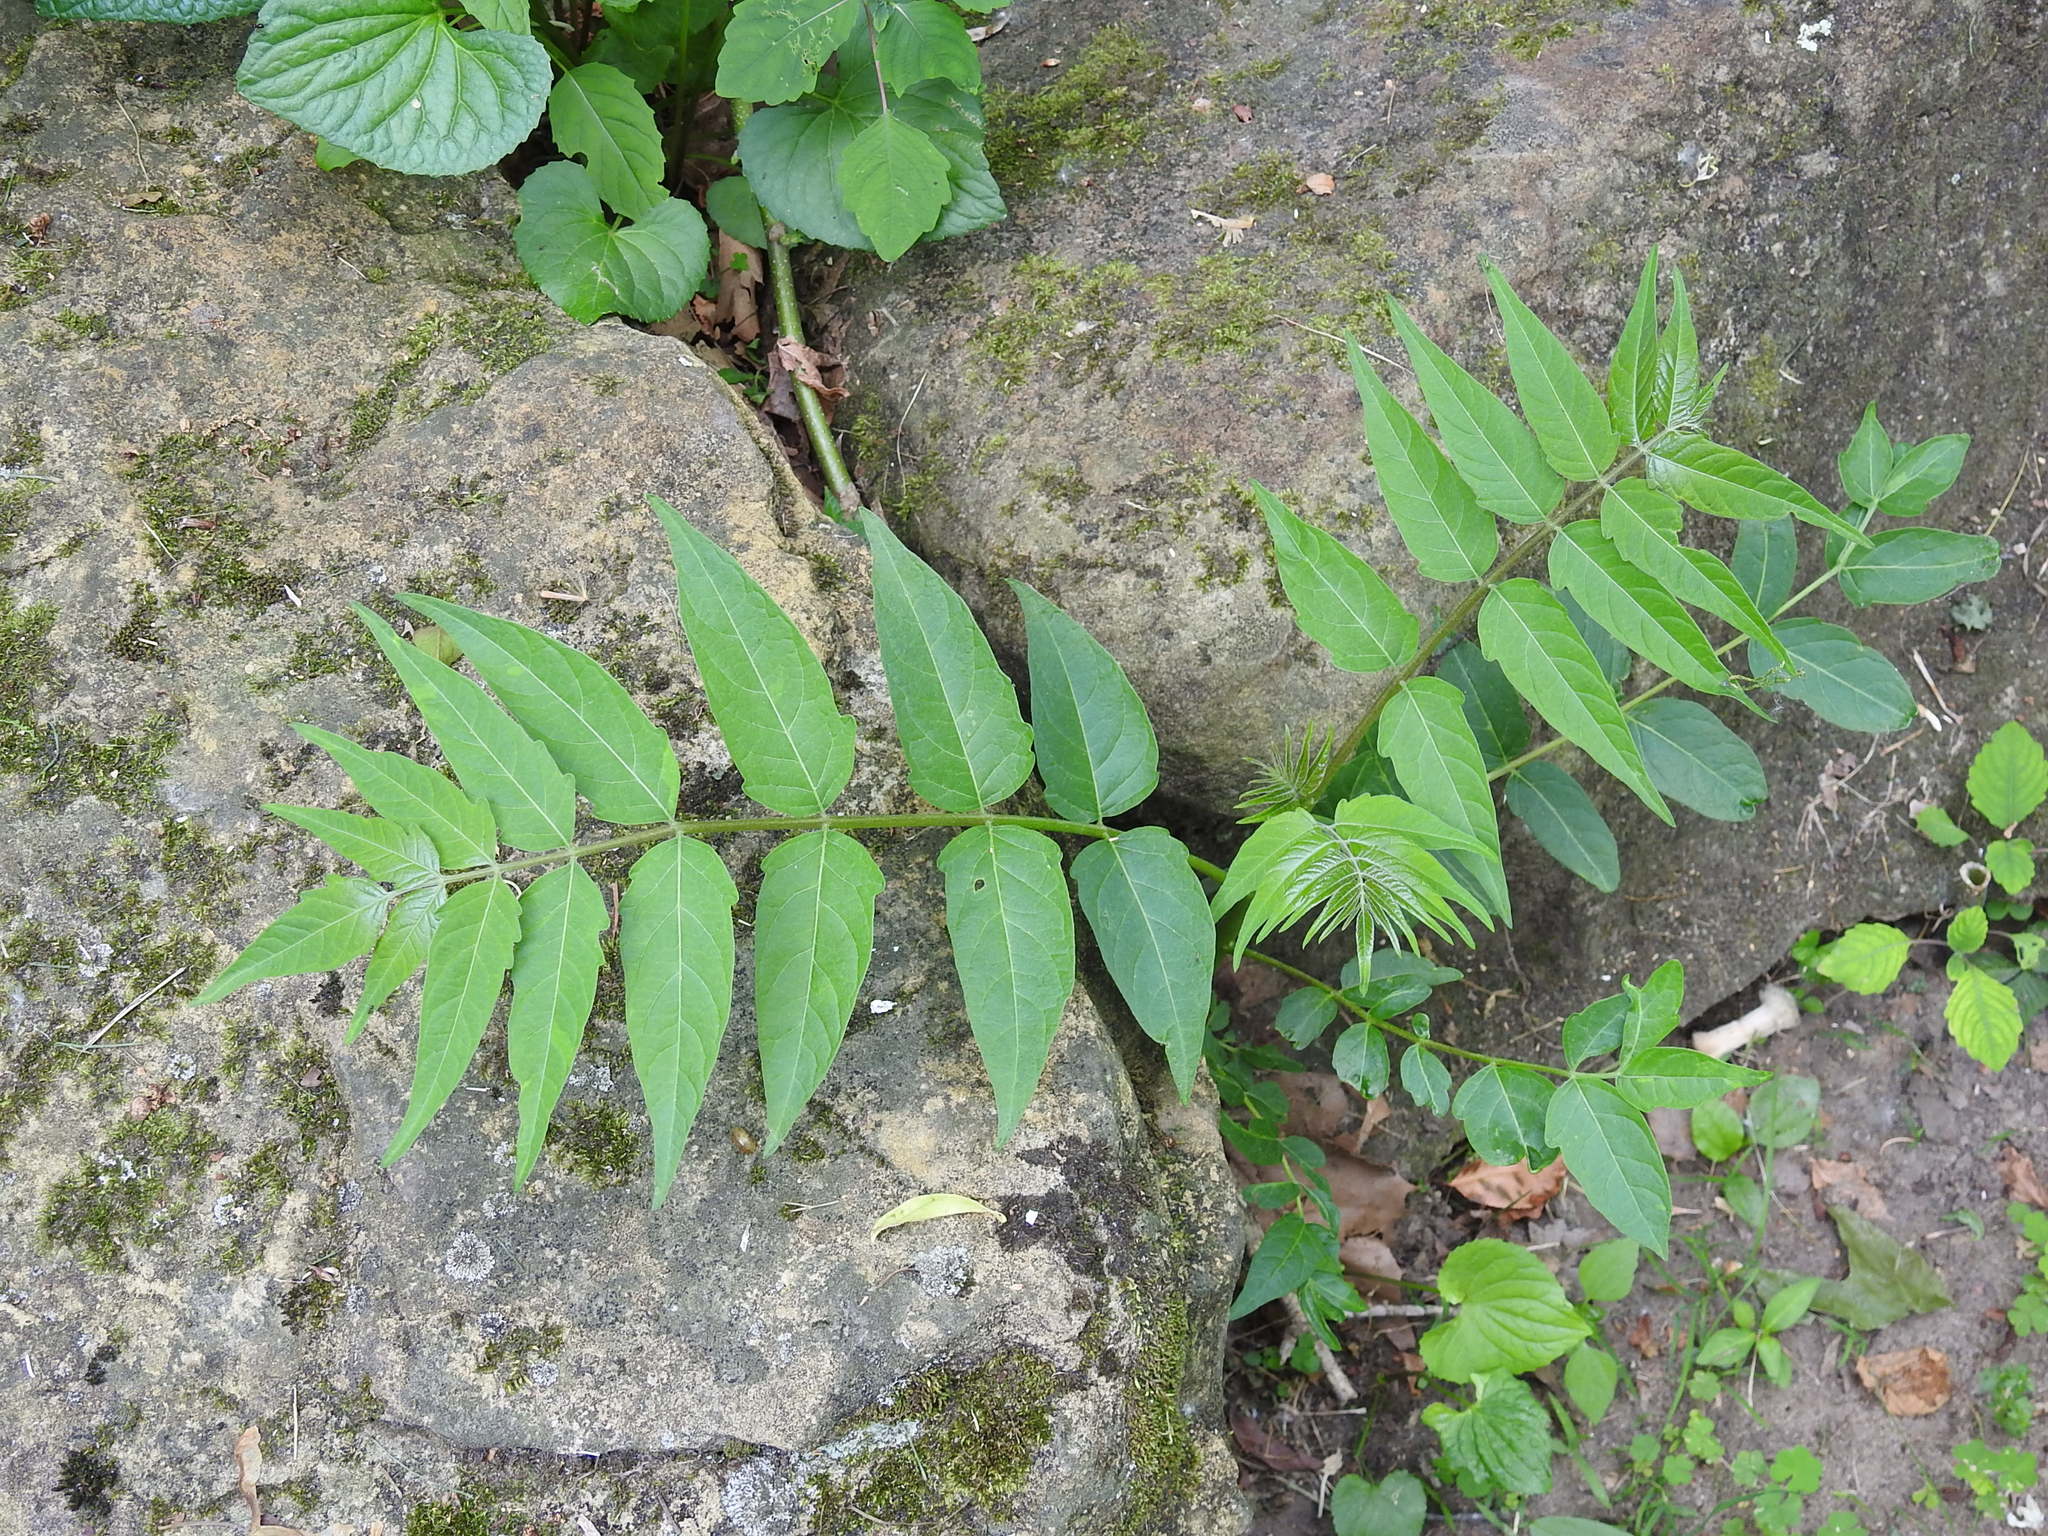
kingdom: Plantae
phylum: Tracheophyta
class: Magnoliopsida
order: Sapindales
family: Simaroubaceae
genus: Ailanthus
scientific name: Ailanthus altissima
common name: Tree-of-heaven
